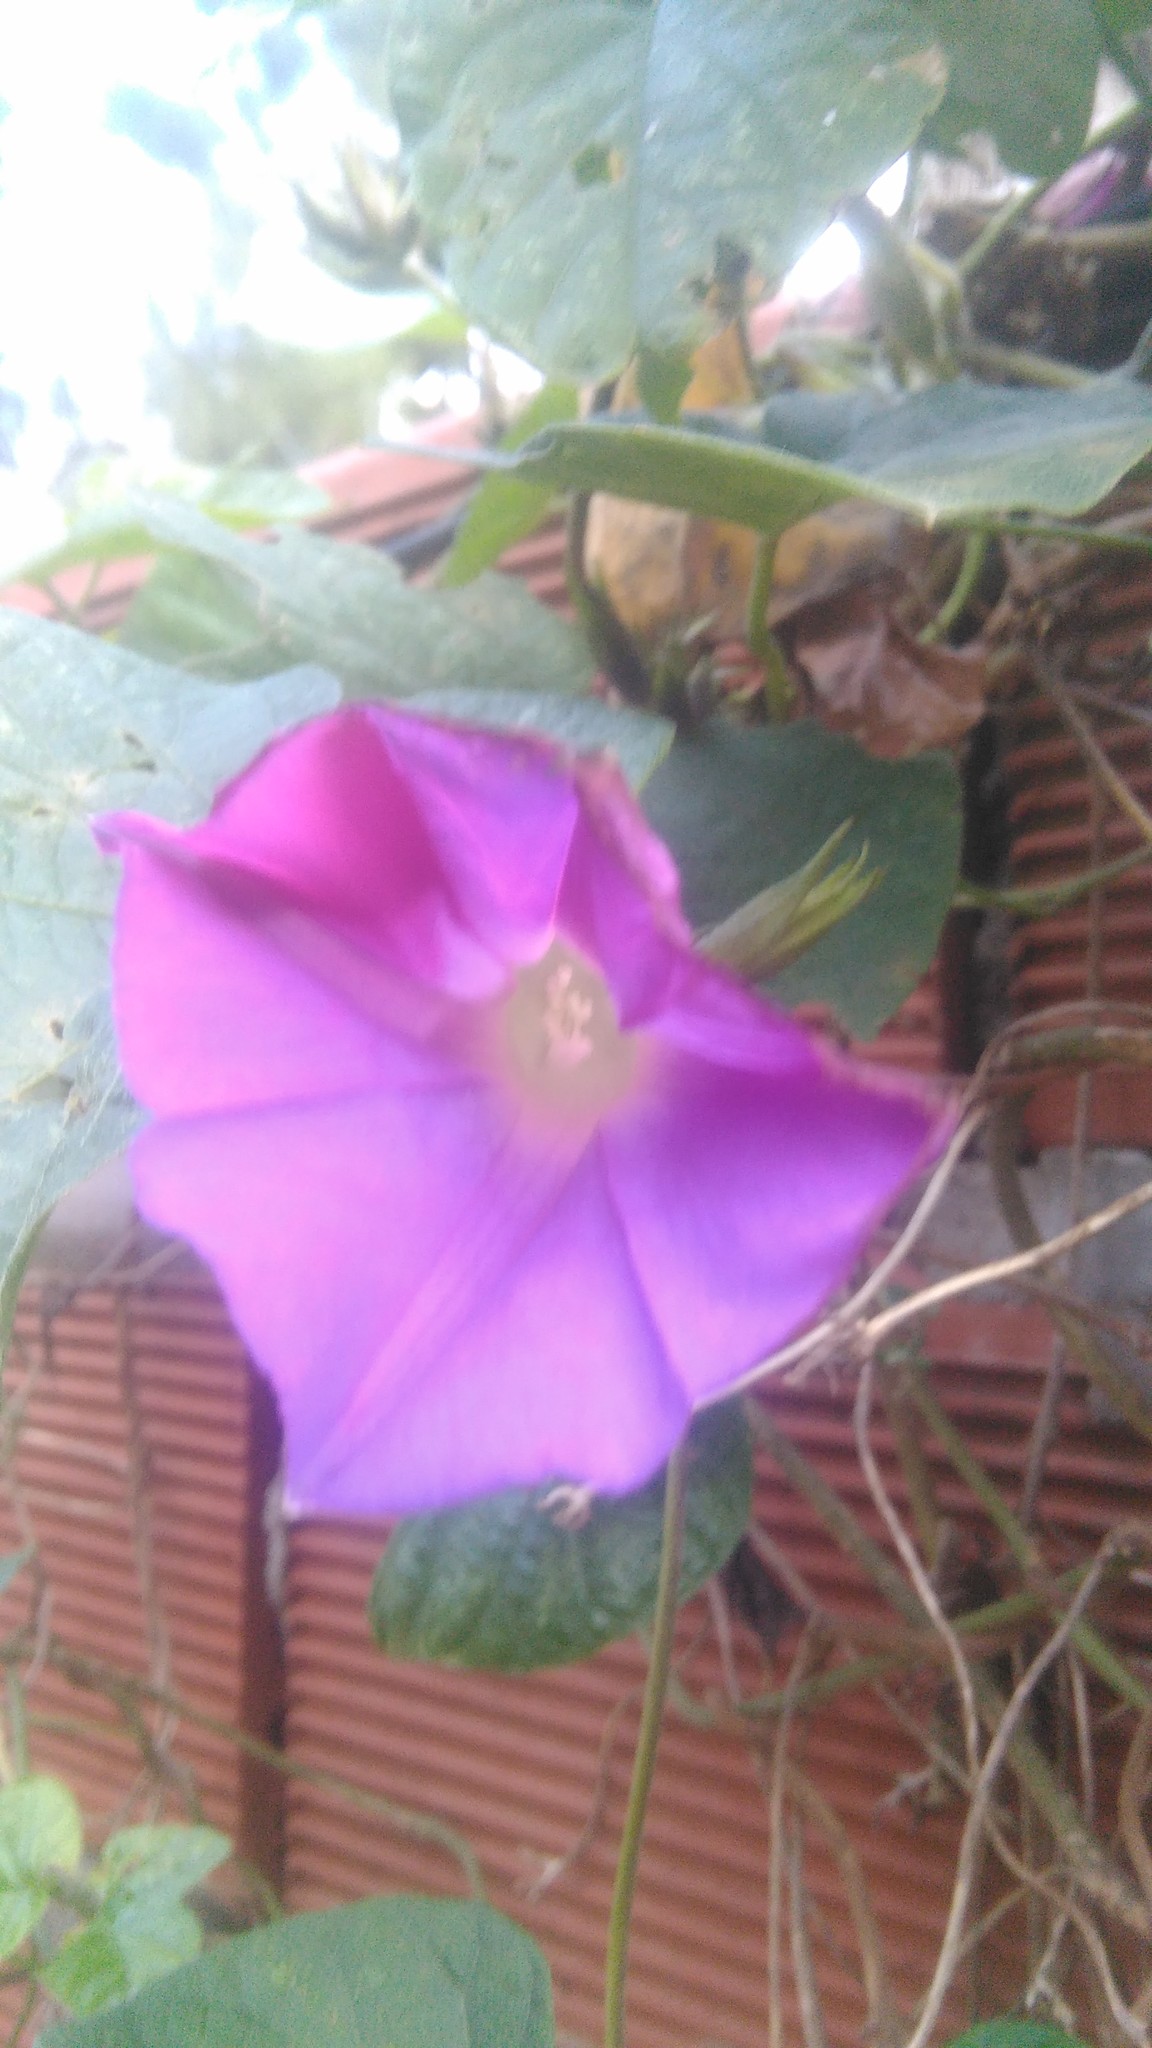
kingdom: Plantae
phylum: Tracheophyta
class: Magnoliopsida
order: Solanales
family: Convolvulaceae
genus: Ipomoea
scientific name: Ipomoea indica
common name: Blue dawnflower
